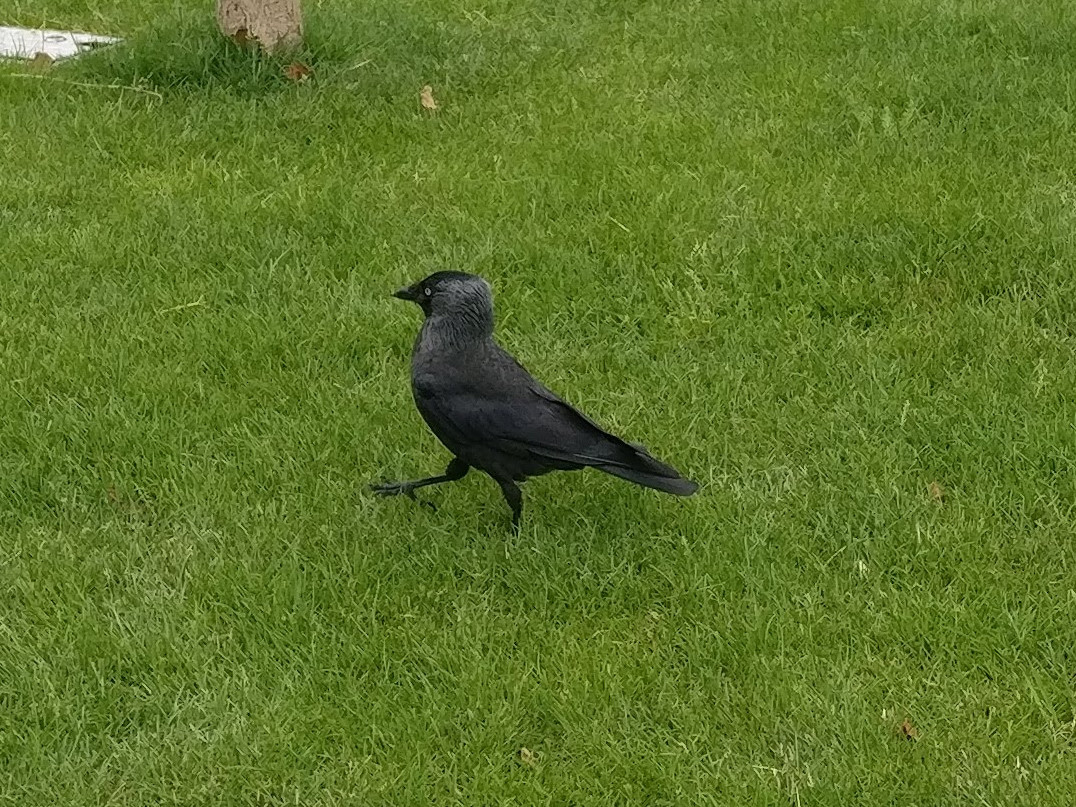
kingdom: Animalia
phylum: Chordata
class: Aves
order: Passeriformes
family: Corvidae
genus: Coloeus
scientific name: Coloeus monedula
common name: Western jackdaw
